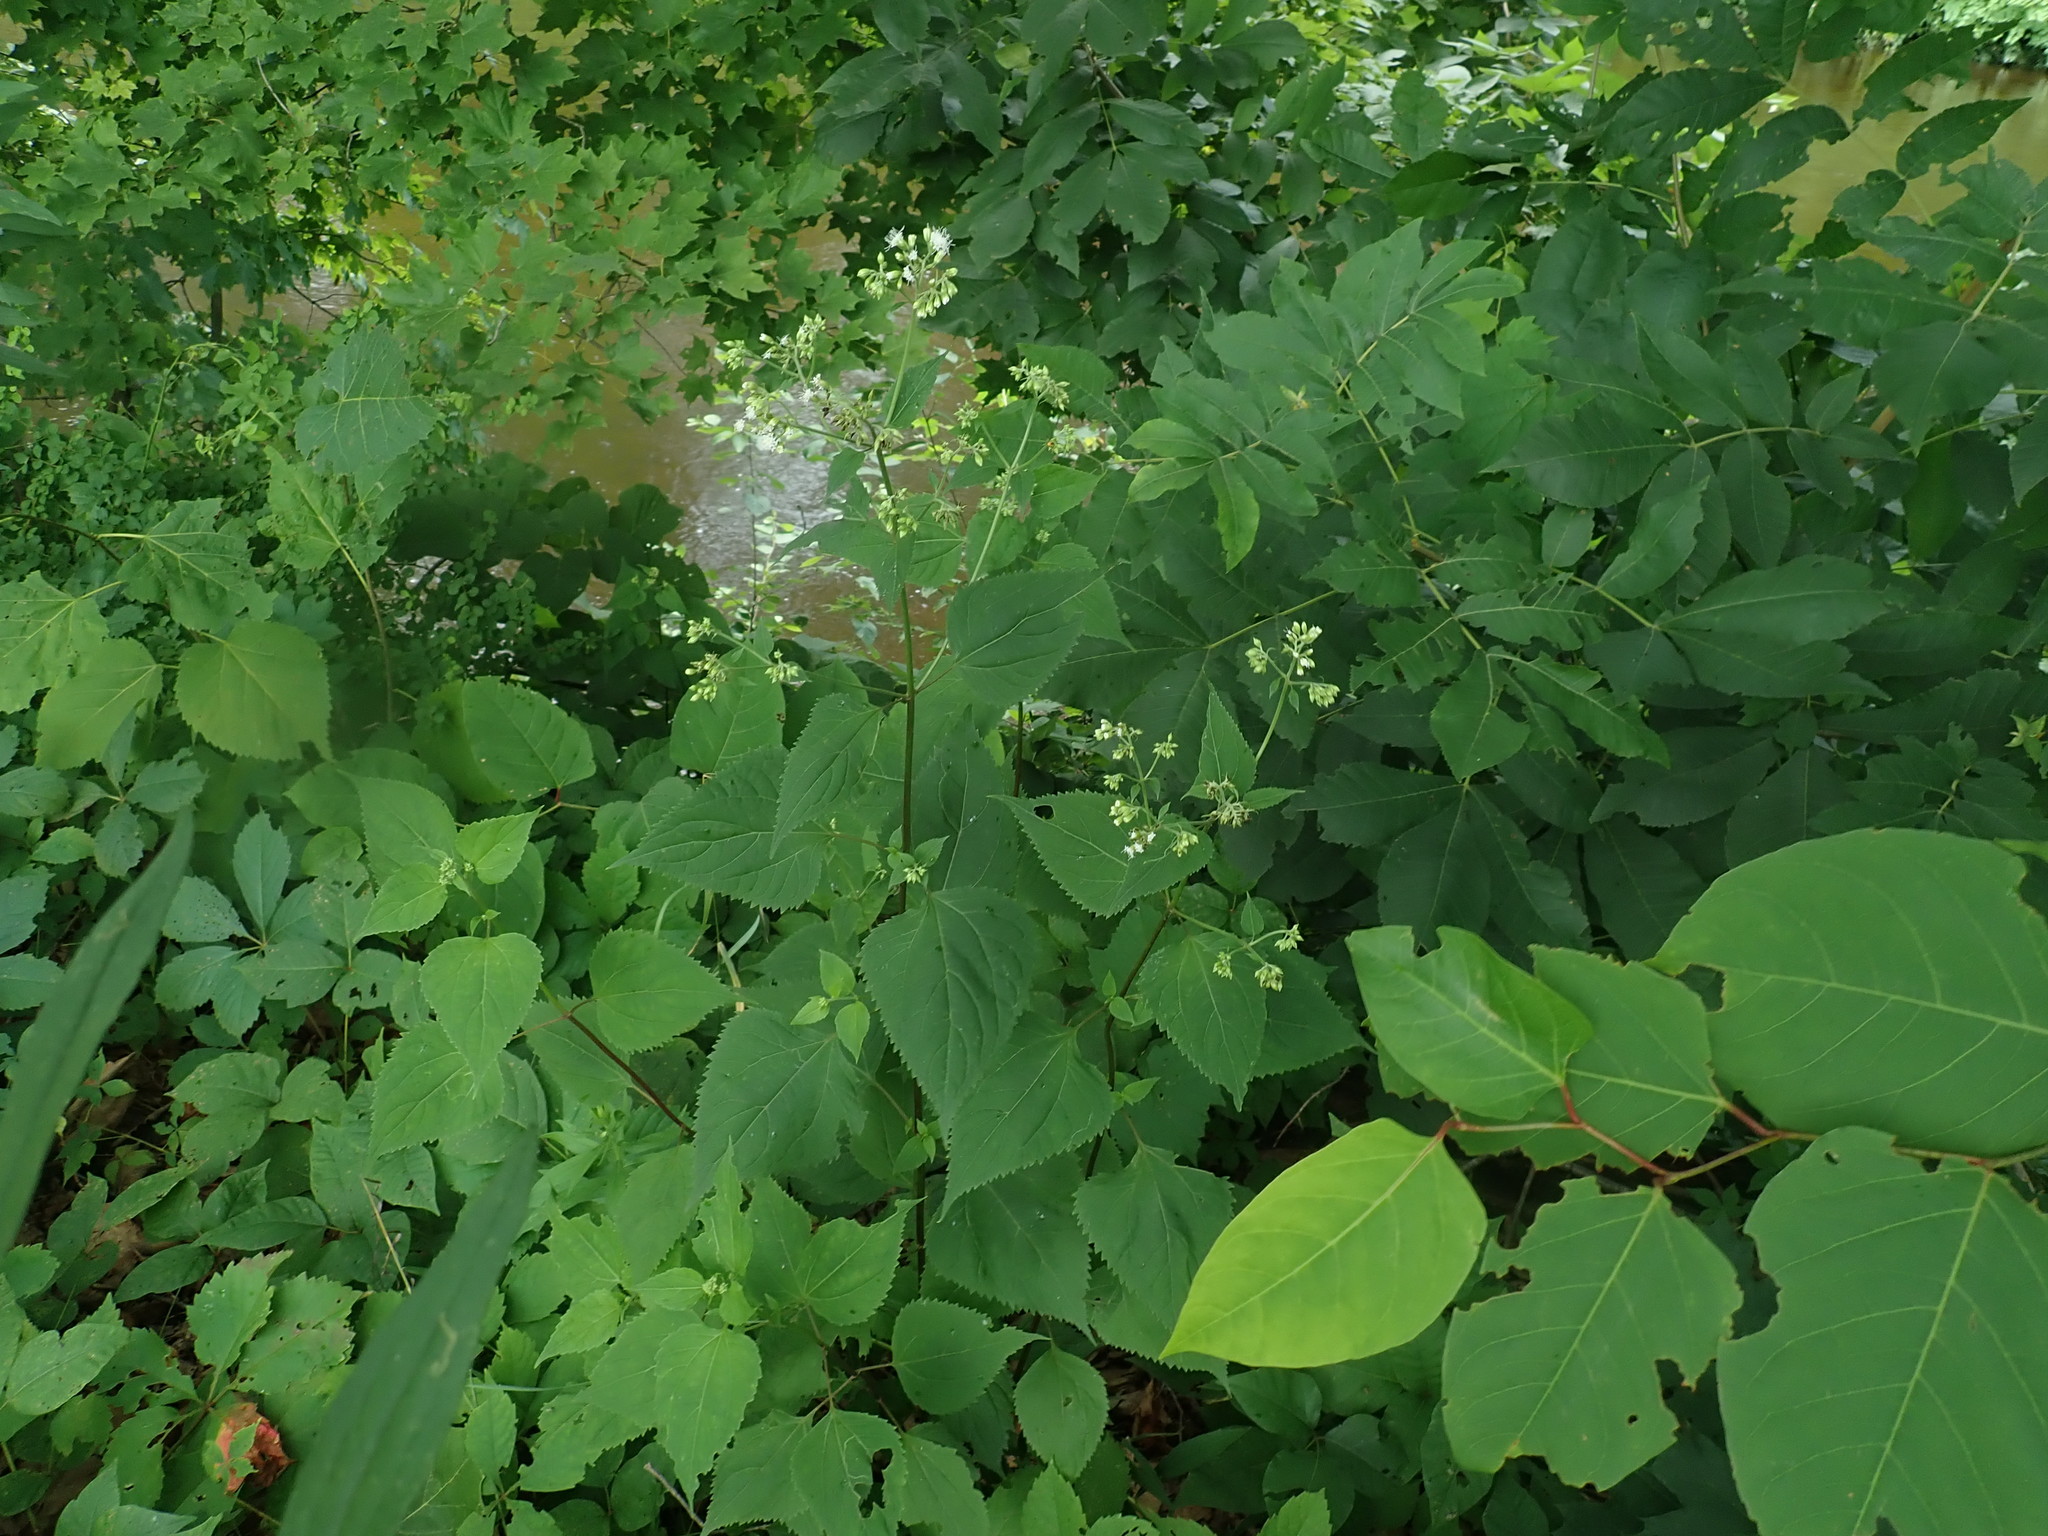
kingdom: Plantae
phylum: Tracheophyta
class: Magnoliopsida
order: Asterales
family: Asteraceae
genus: Ageratina
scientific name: Ageratina altissima
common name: White snakeroot
